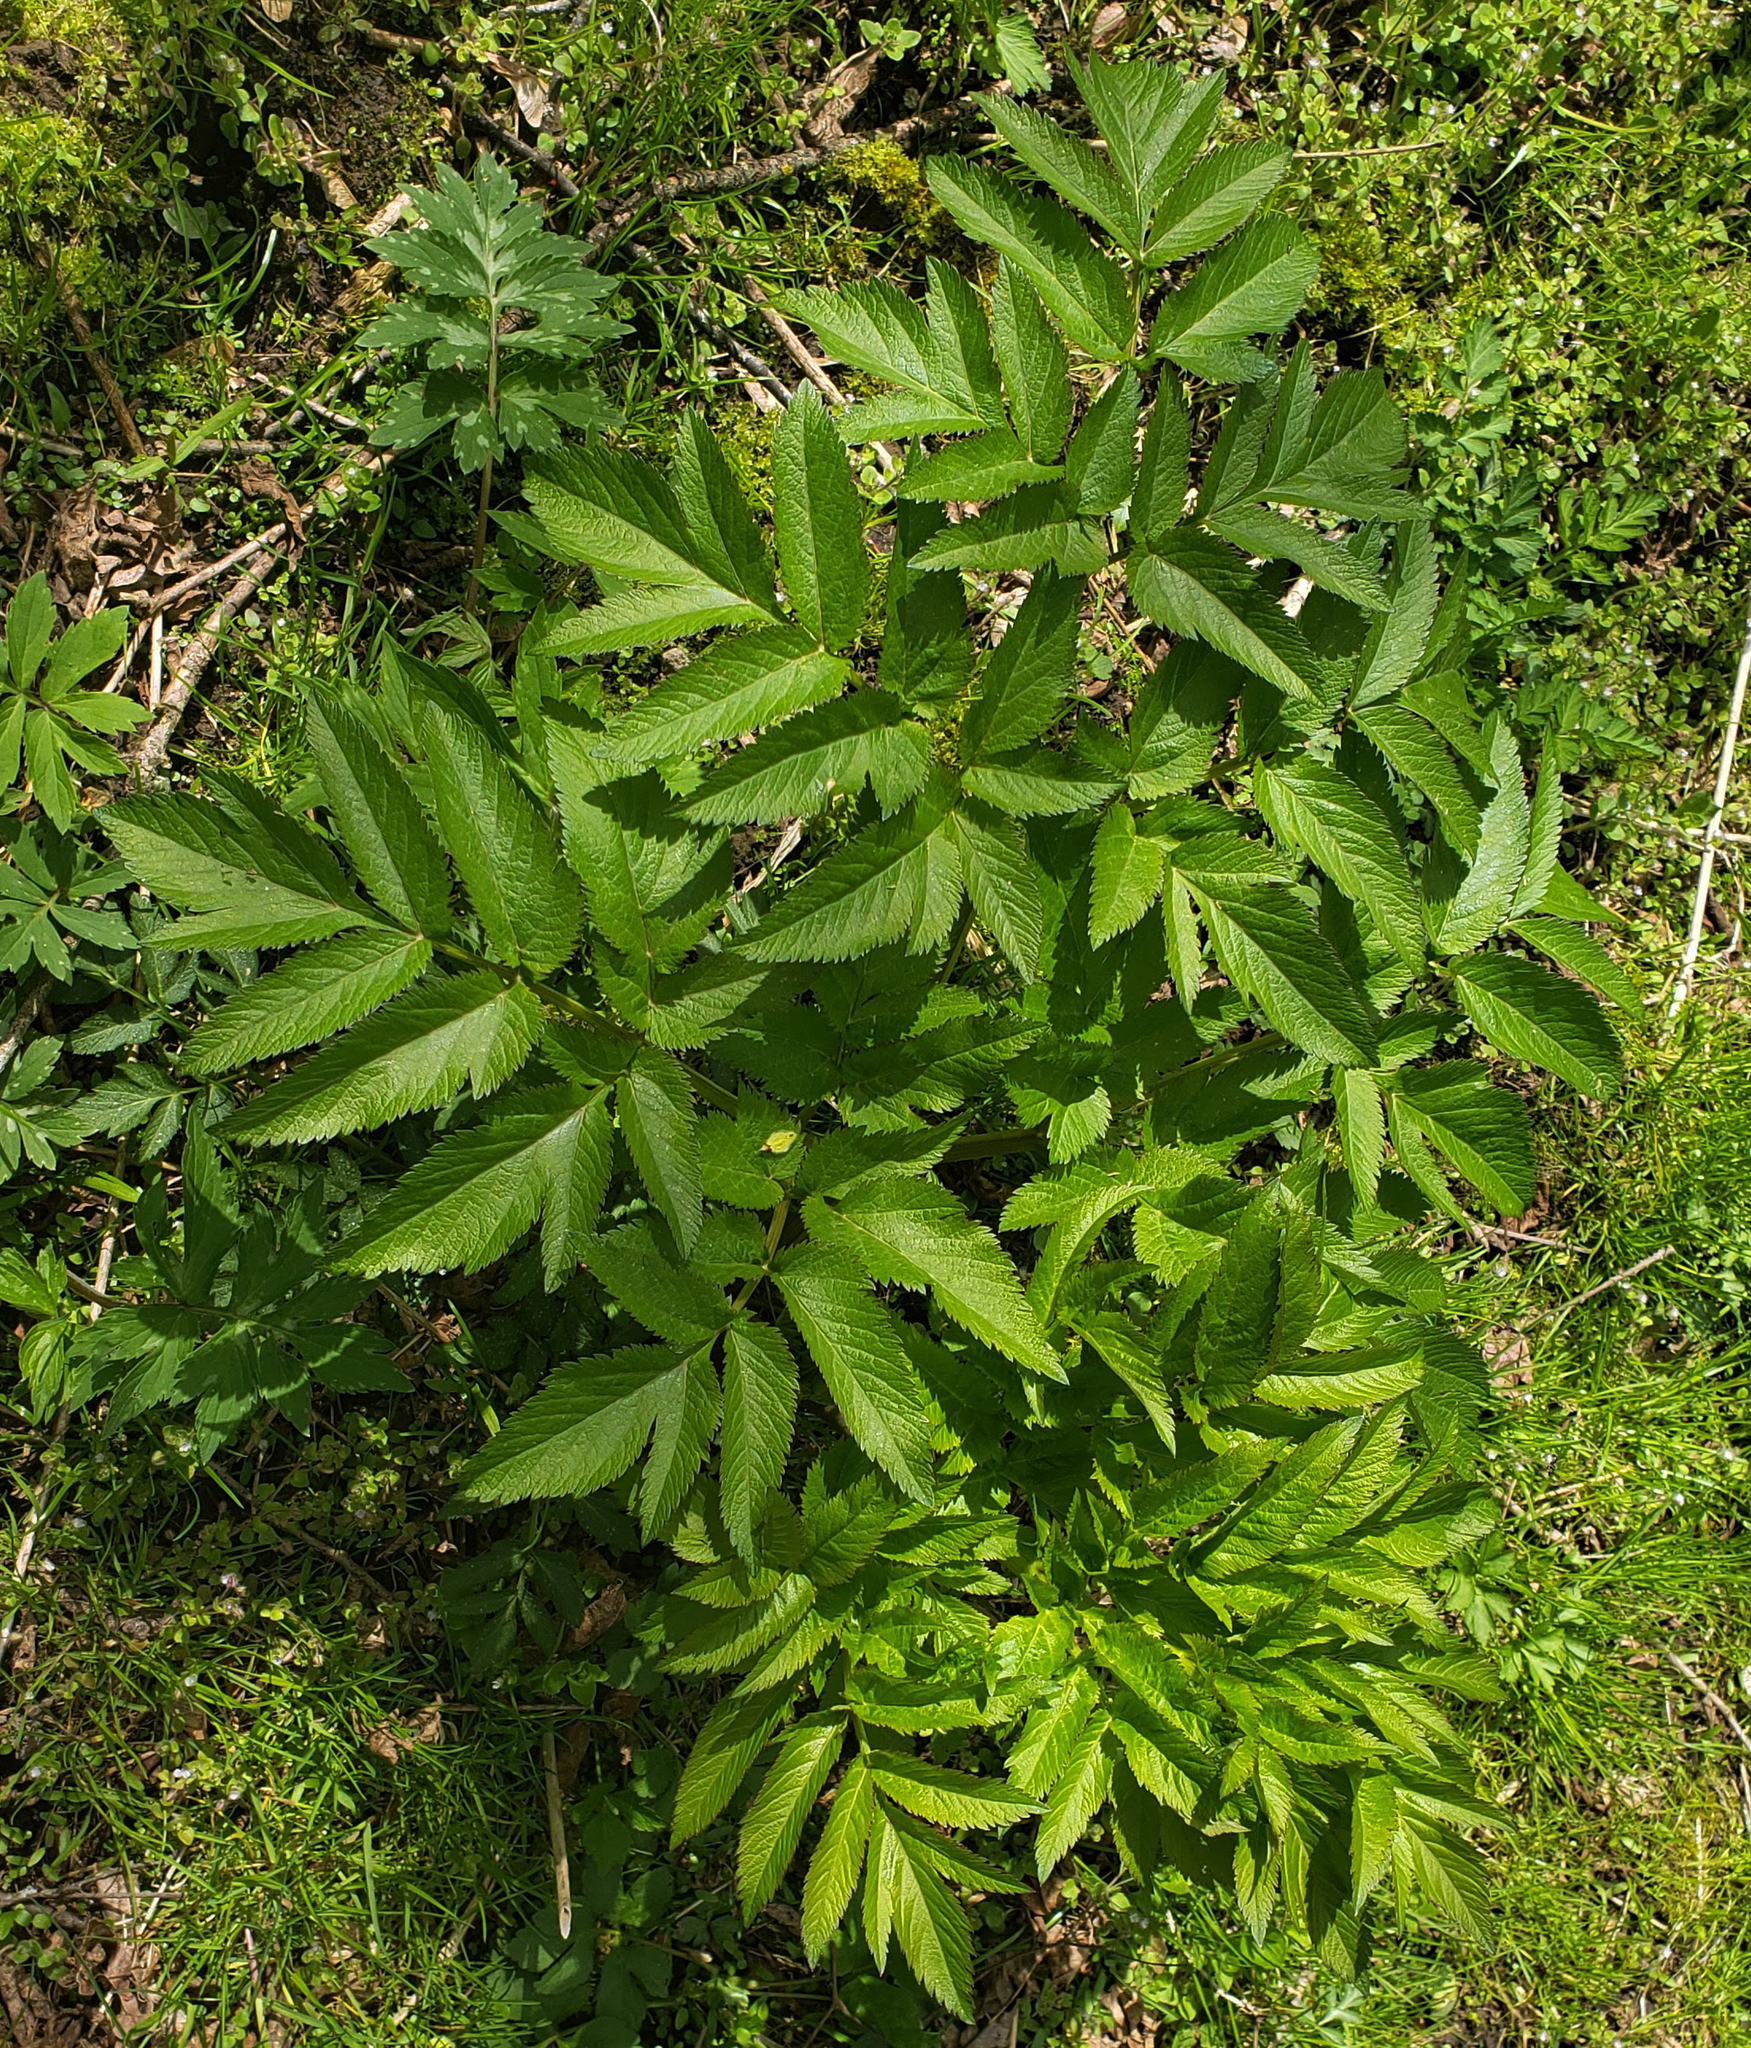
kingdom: Plantae
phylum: Tracheophyta
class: Magnoliopsida
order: Apiales
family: Apiaceae
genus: Angelica
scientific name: Angelica atropurpurea
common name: Great angelica
